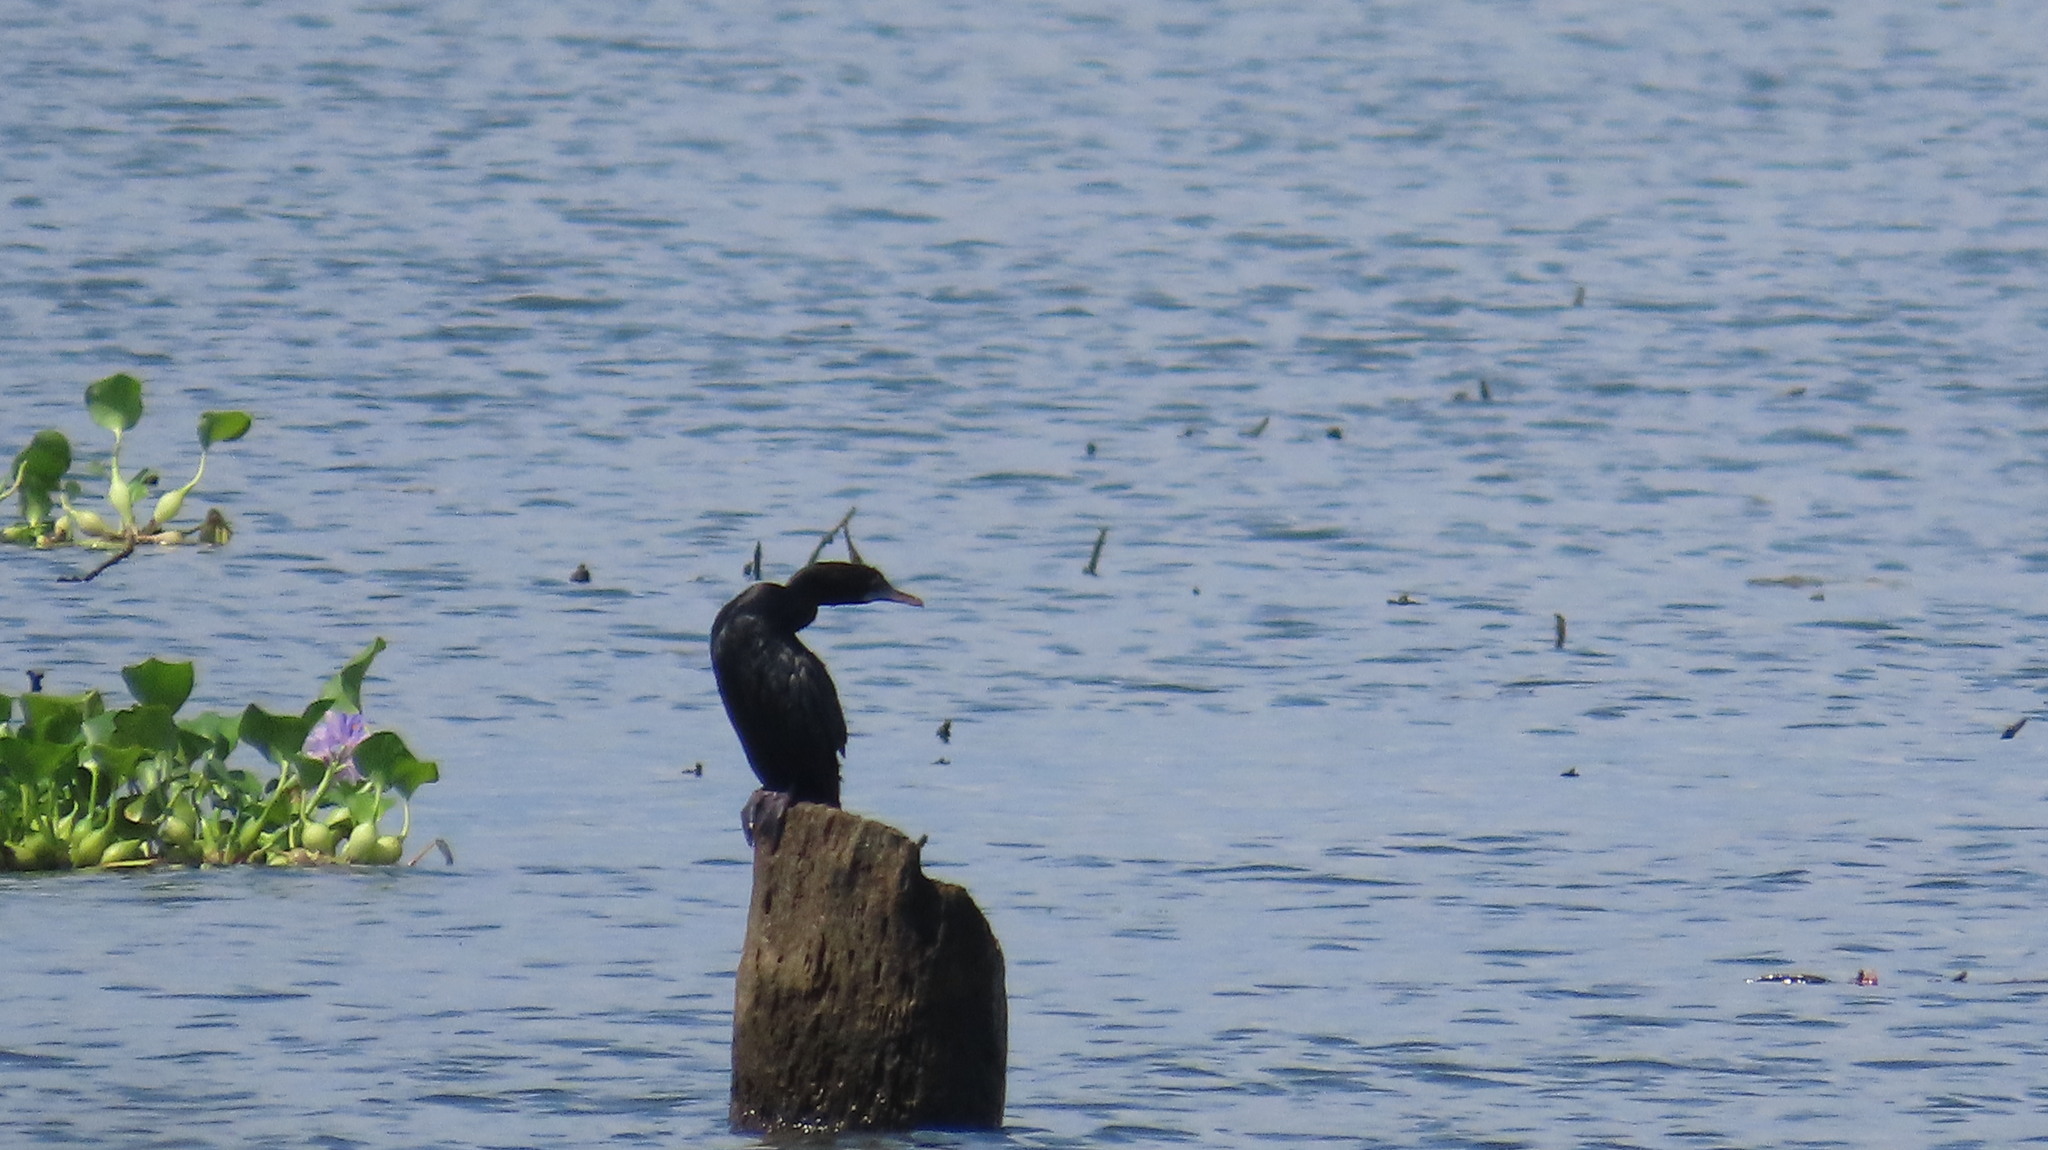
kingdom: Animalia
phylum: Chordata
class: Aves
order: Suliformes
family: Phalacrocoracidae
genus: Microcarbo
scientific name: Microcarbo niger
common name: Little cormorant
